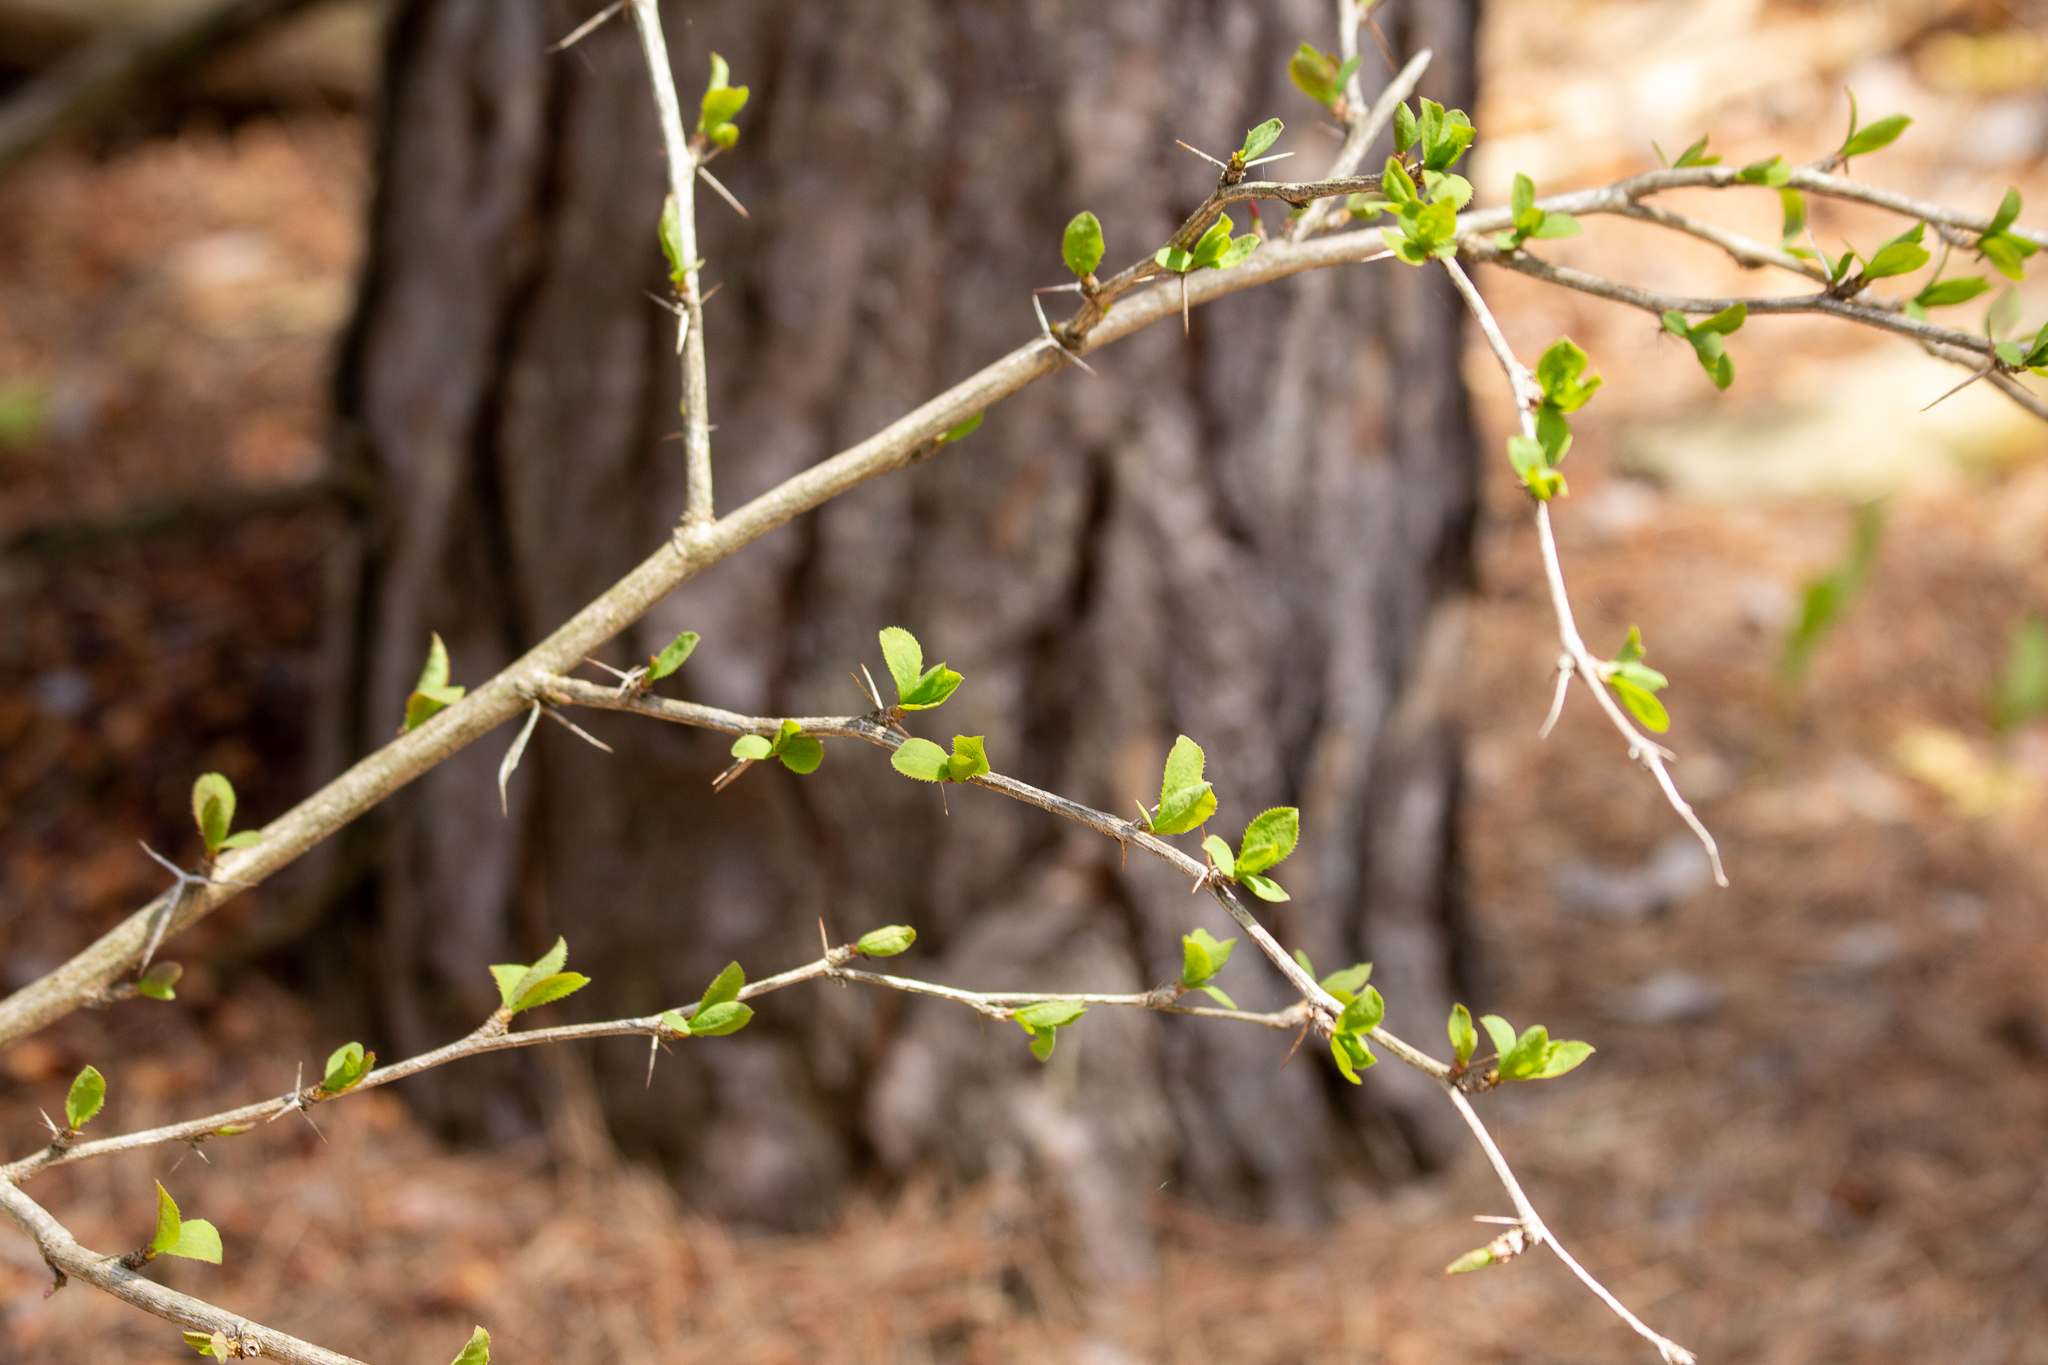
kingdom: Plantae
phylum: Tracheophyta
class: Magnoliopsida
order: Ranunculales
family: Berberidaceae
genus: Berberis
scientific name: Berberis vulgaris
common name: Barberry
